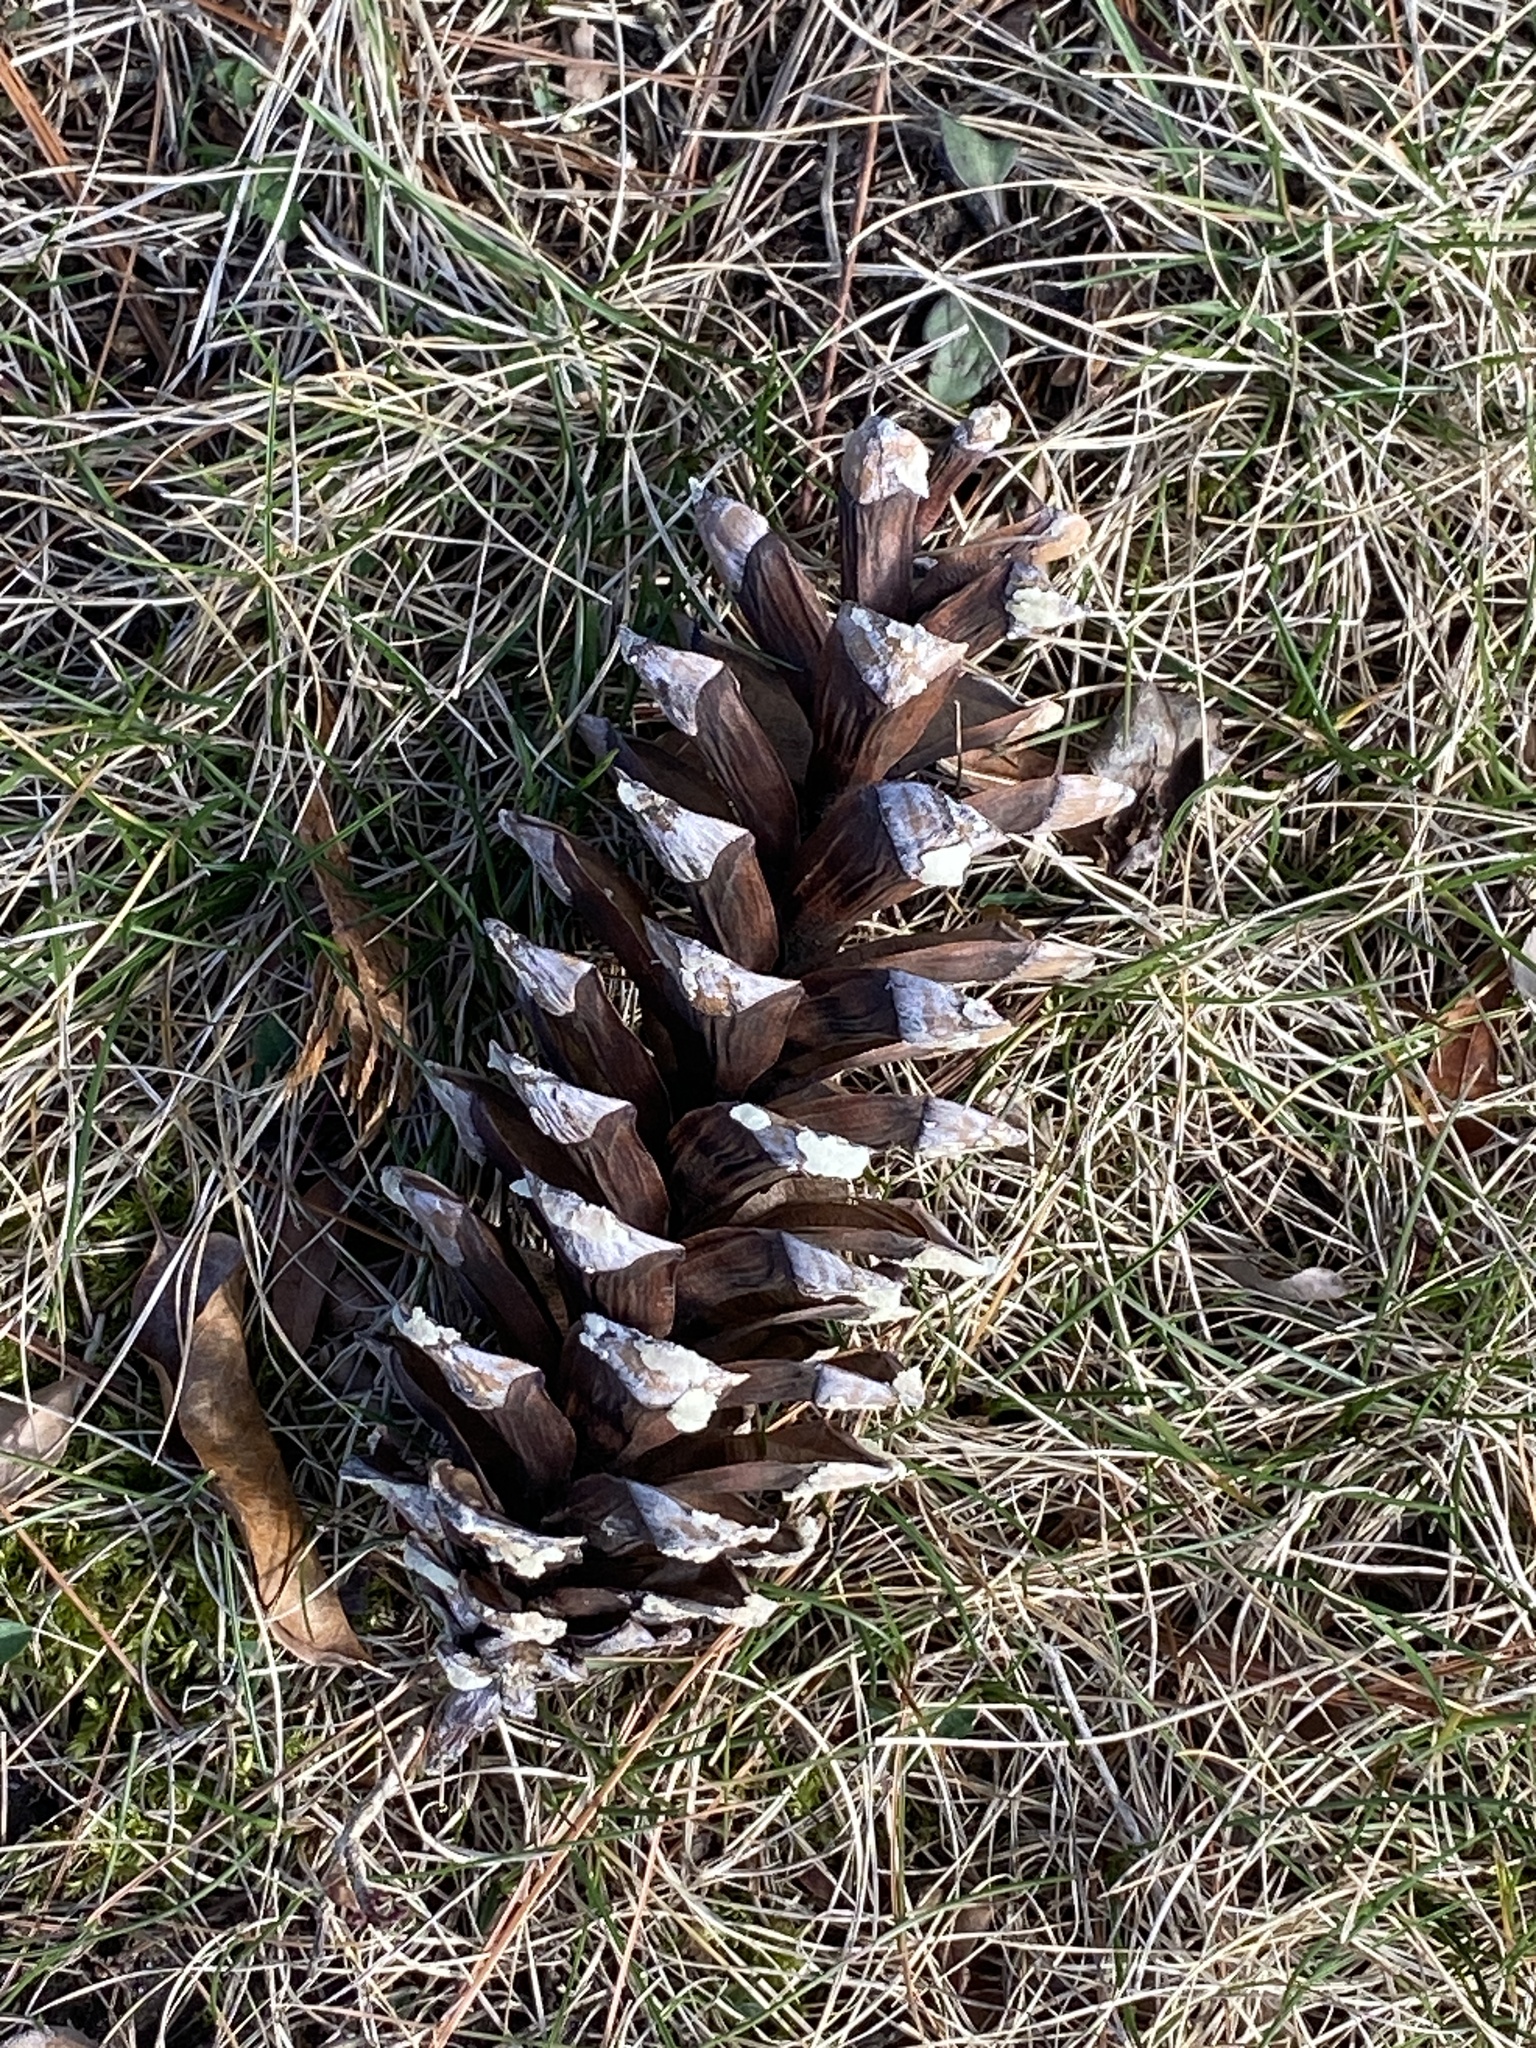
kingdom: Plantae
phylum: Tracheophyta
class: Pinopsida
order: Pinales
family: Pinaceae
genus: Pinus
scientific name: Pinus strobus
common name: Weymouth pine
